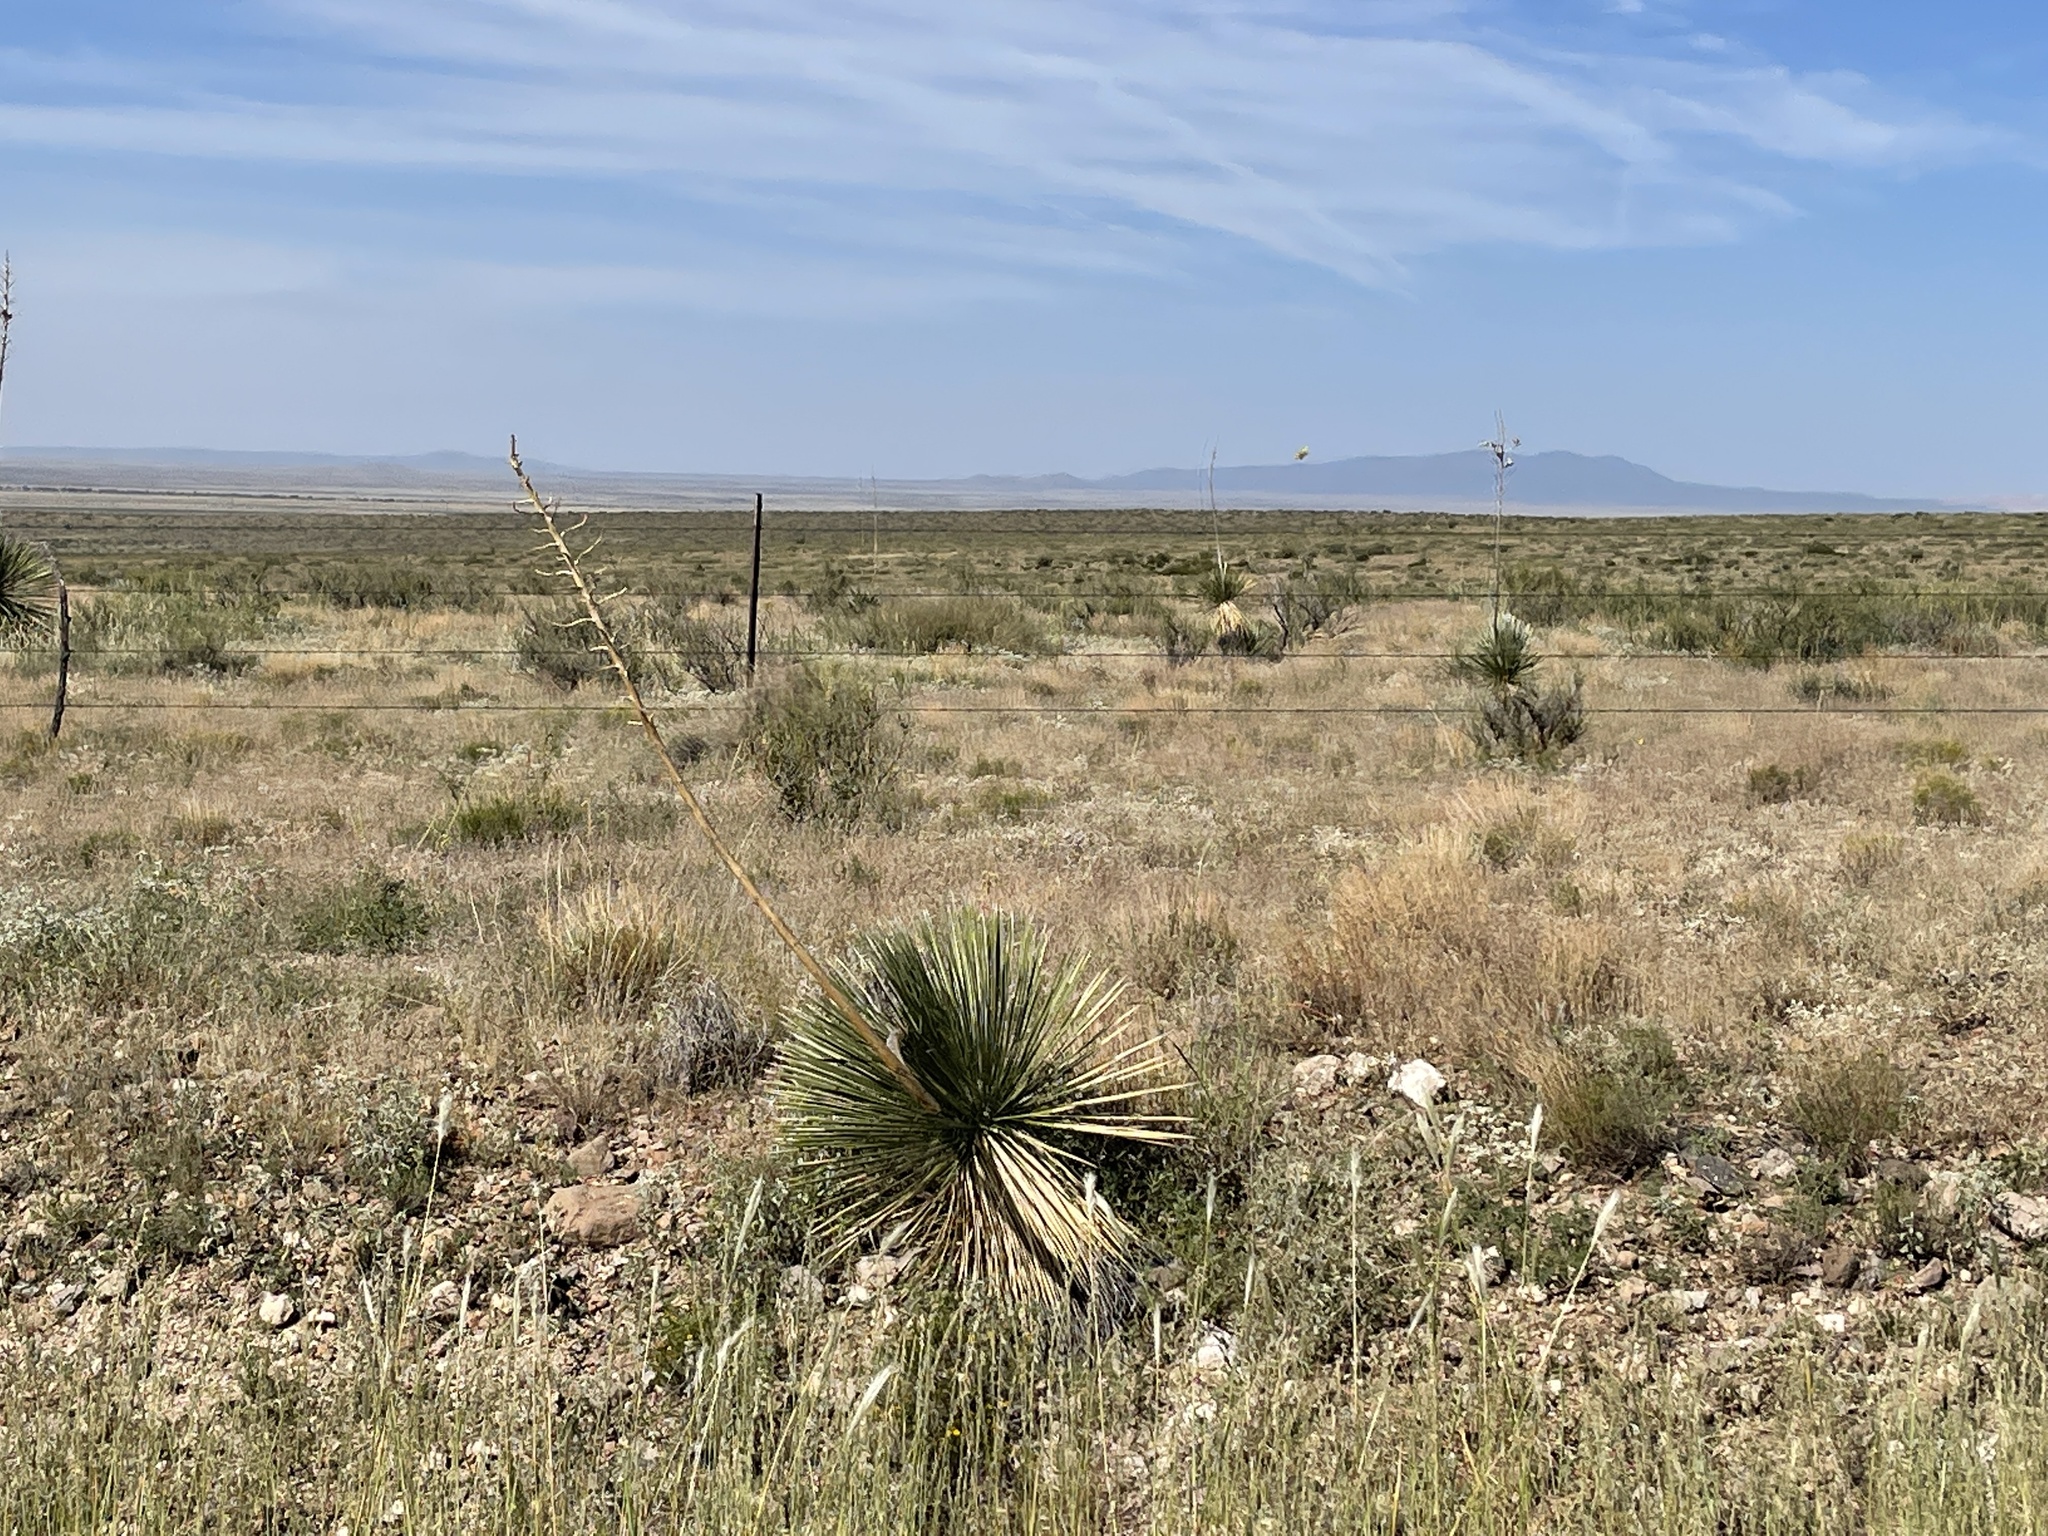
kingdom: Plantae
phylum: Tracheophyta
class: Liliopsida
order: Asparagales
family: Asparagaceae
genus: Yucca
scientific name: Yucca elata
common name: Palmella
